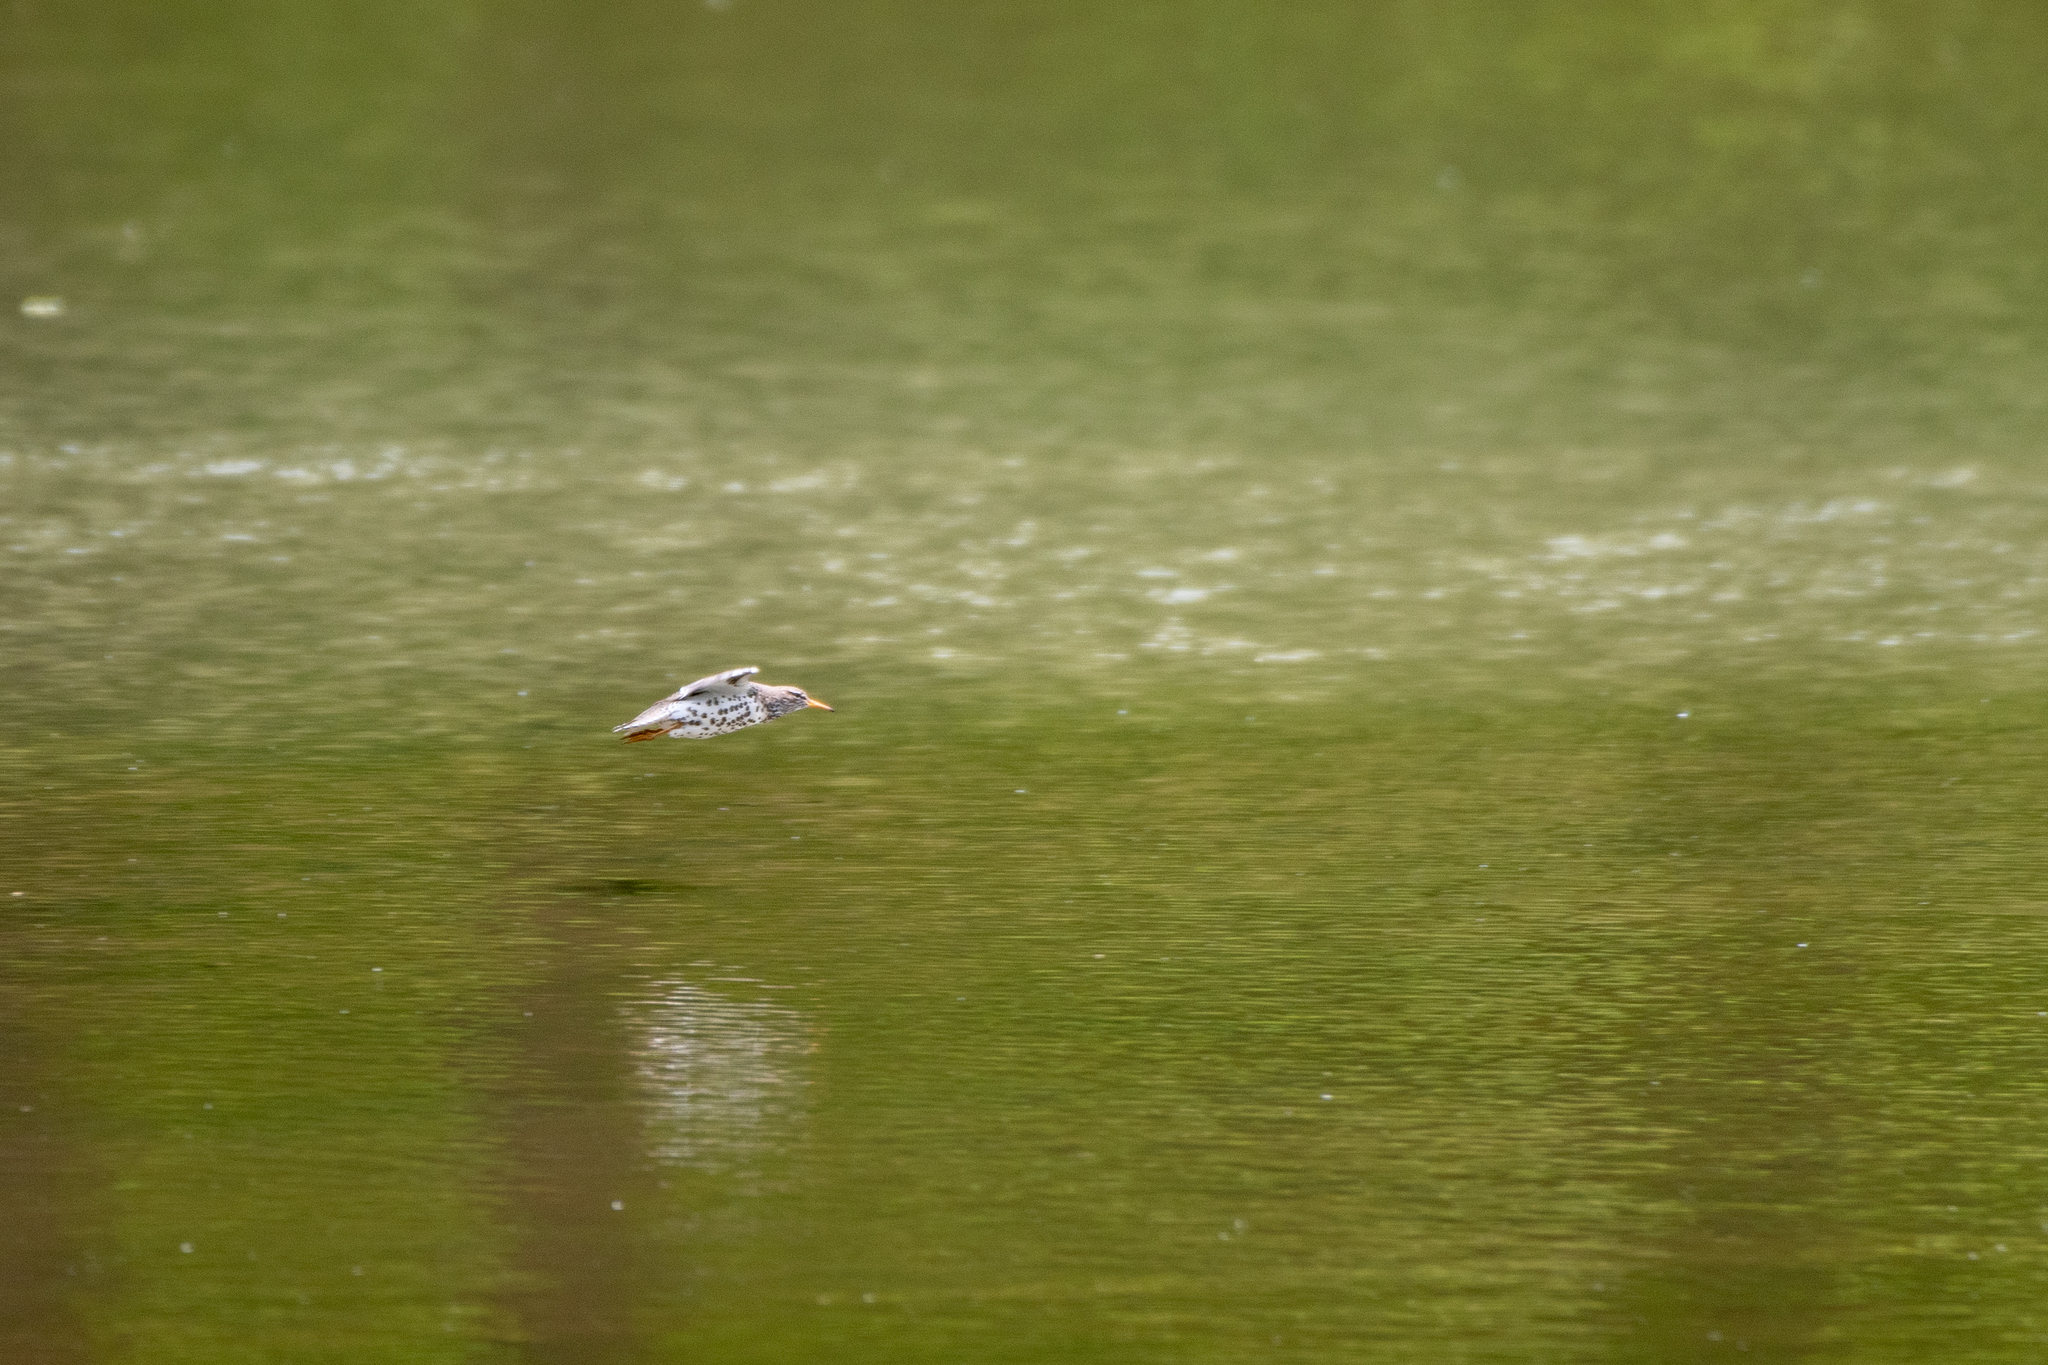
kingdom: Animalia
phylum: Chordata
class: Aves
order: Charadriiformes
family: Scolopacidae
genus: Actitis
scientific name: Actitis macularius
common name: Spotted sandpiper
